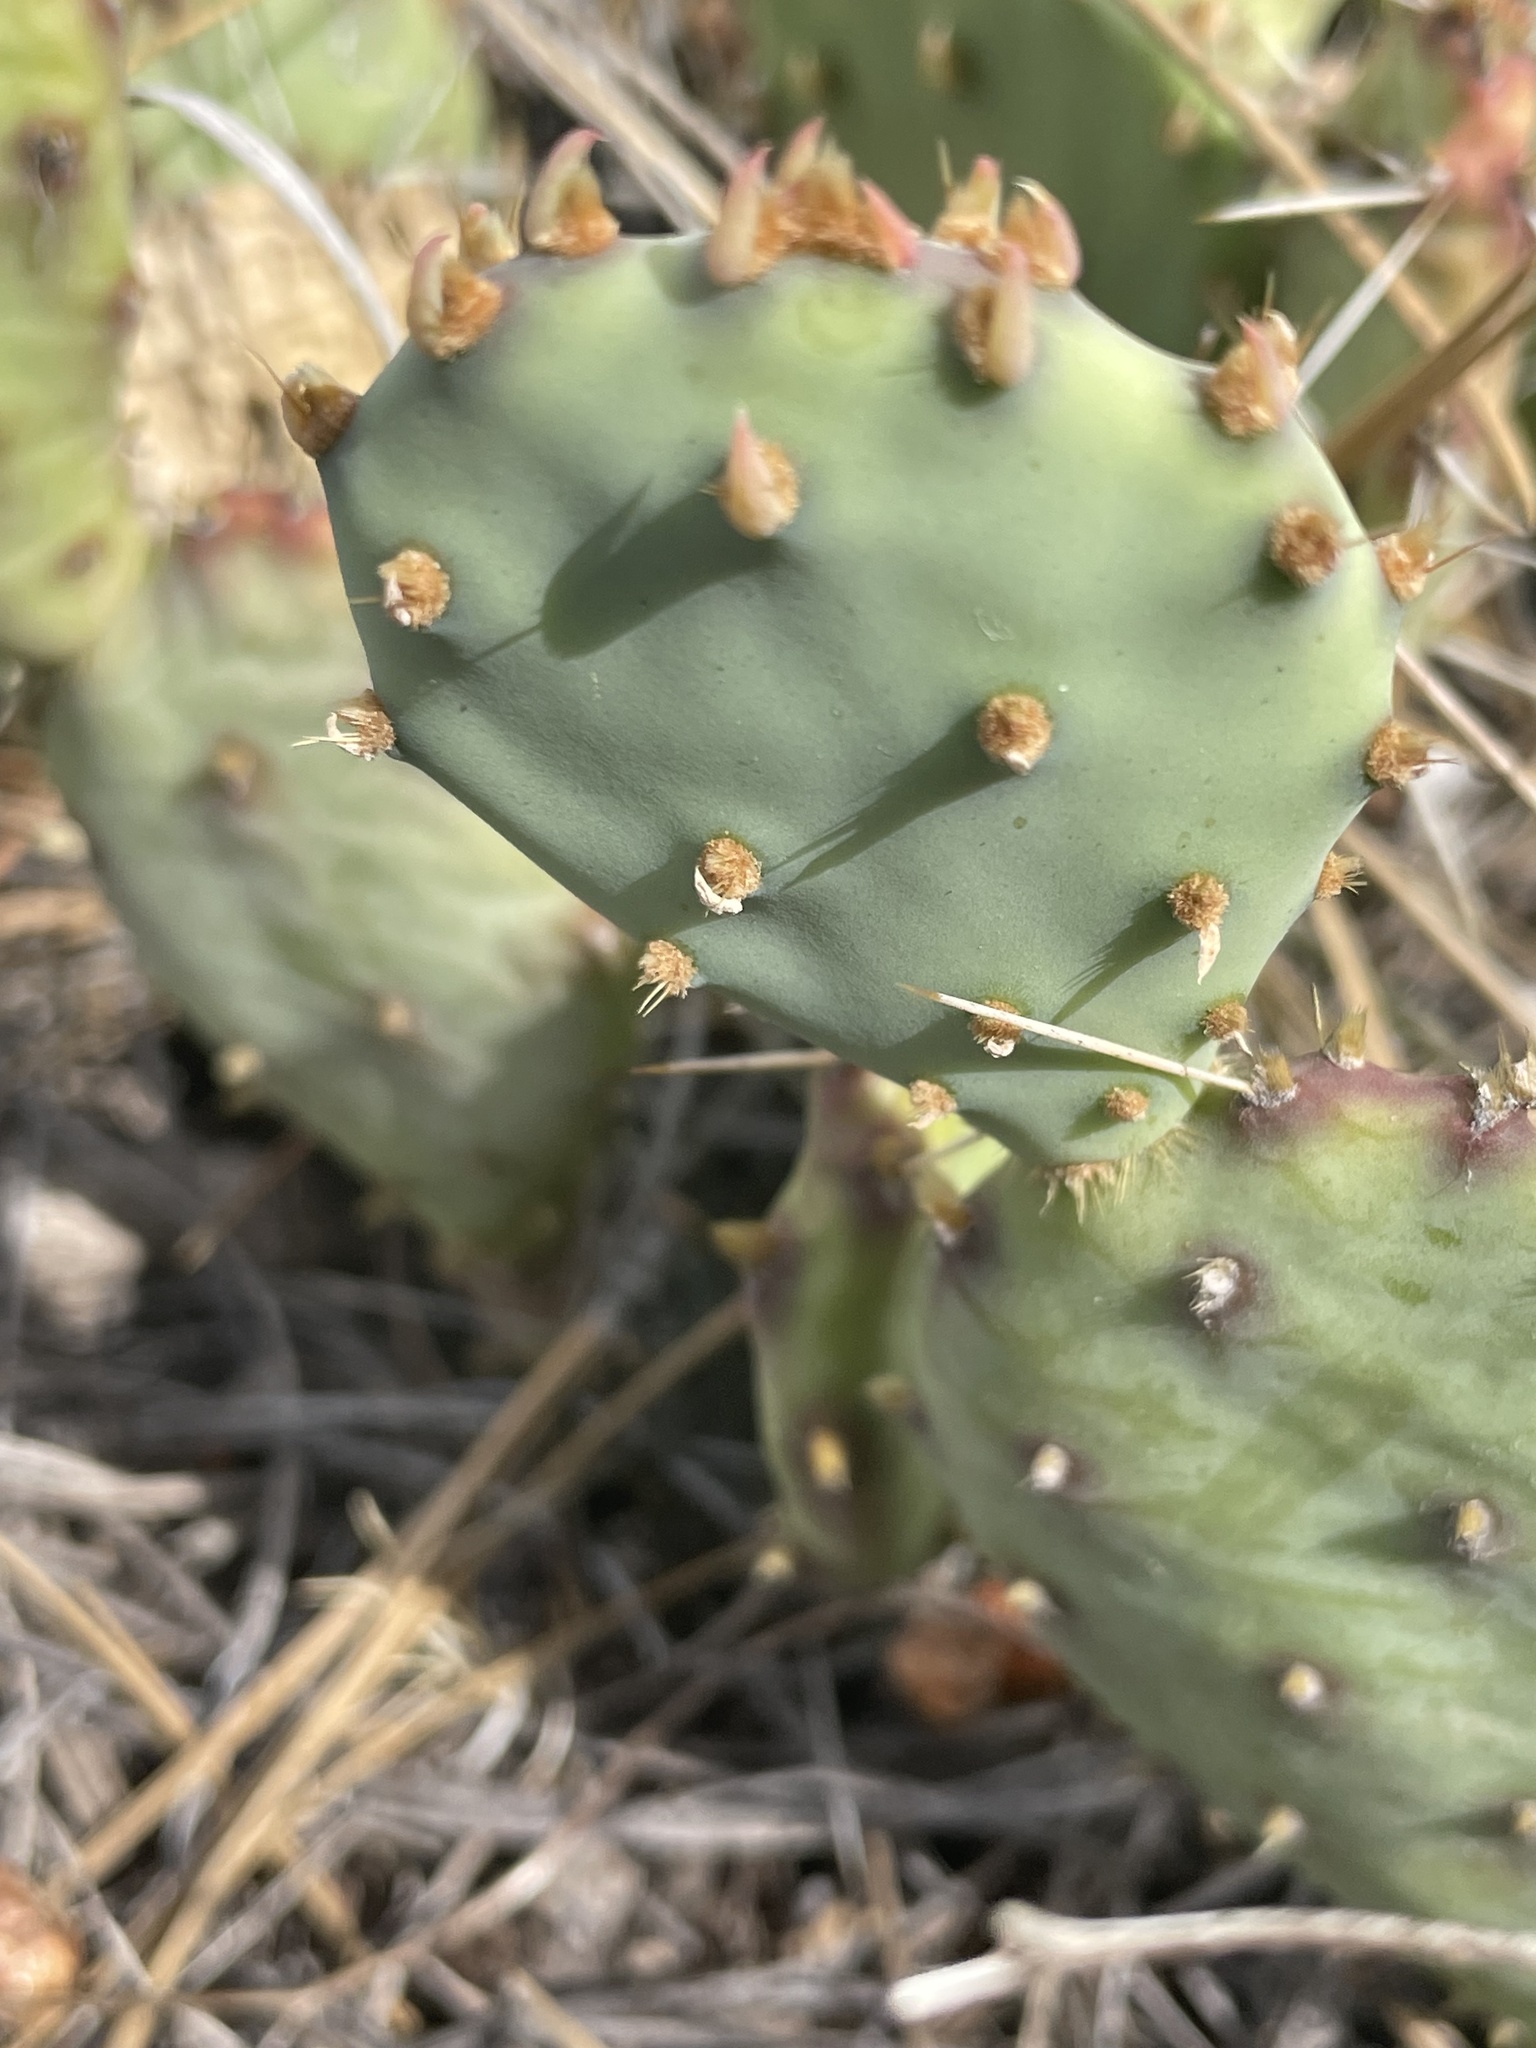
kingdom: Plantae
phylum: Tracheophyta
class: Magnoliopsida
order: Caryophyllales
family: Cactaceae
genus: Opuntia
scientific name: Opuntia macrorhiza
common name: Grassland pricklypear
